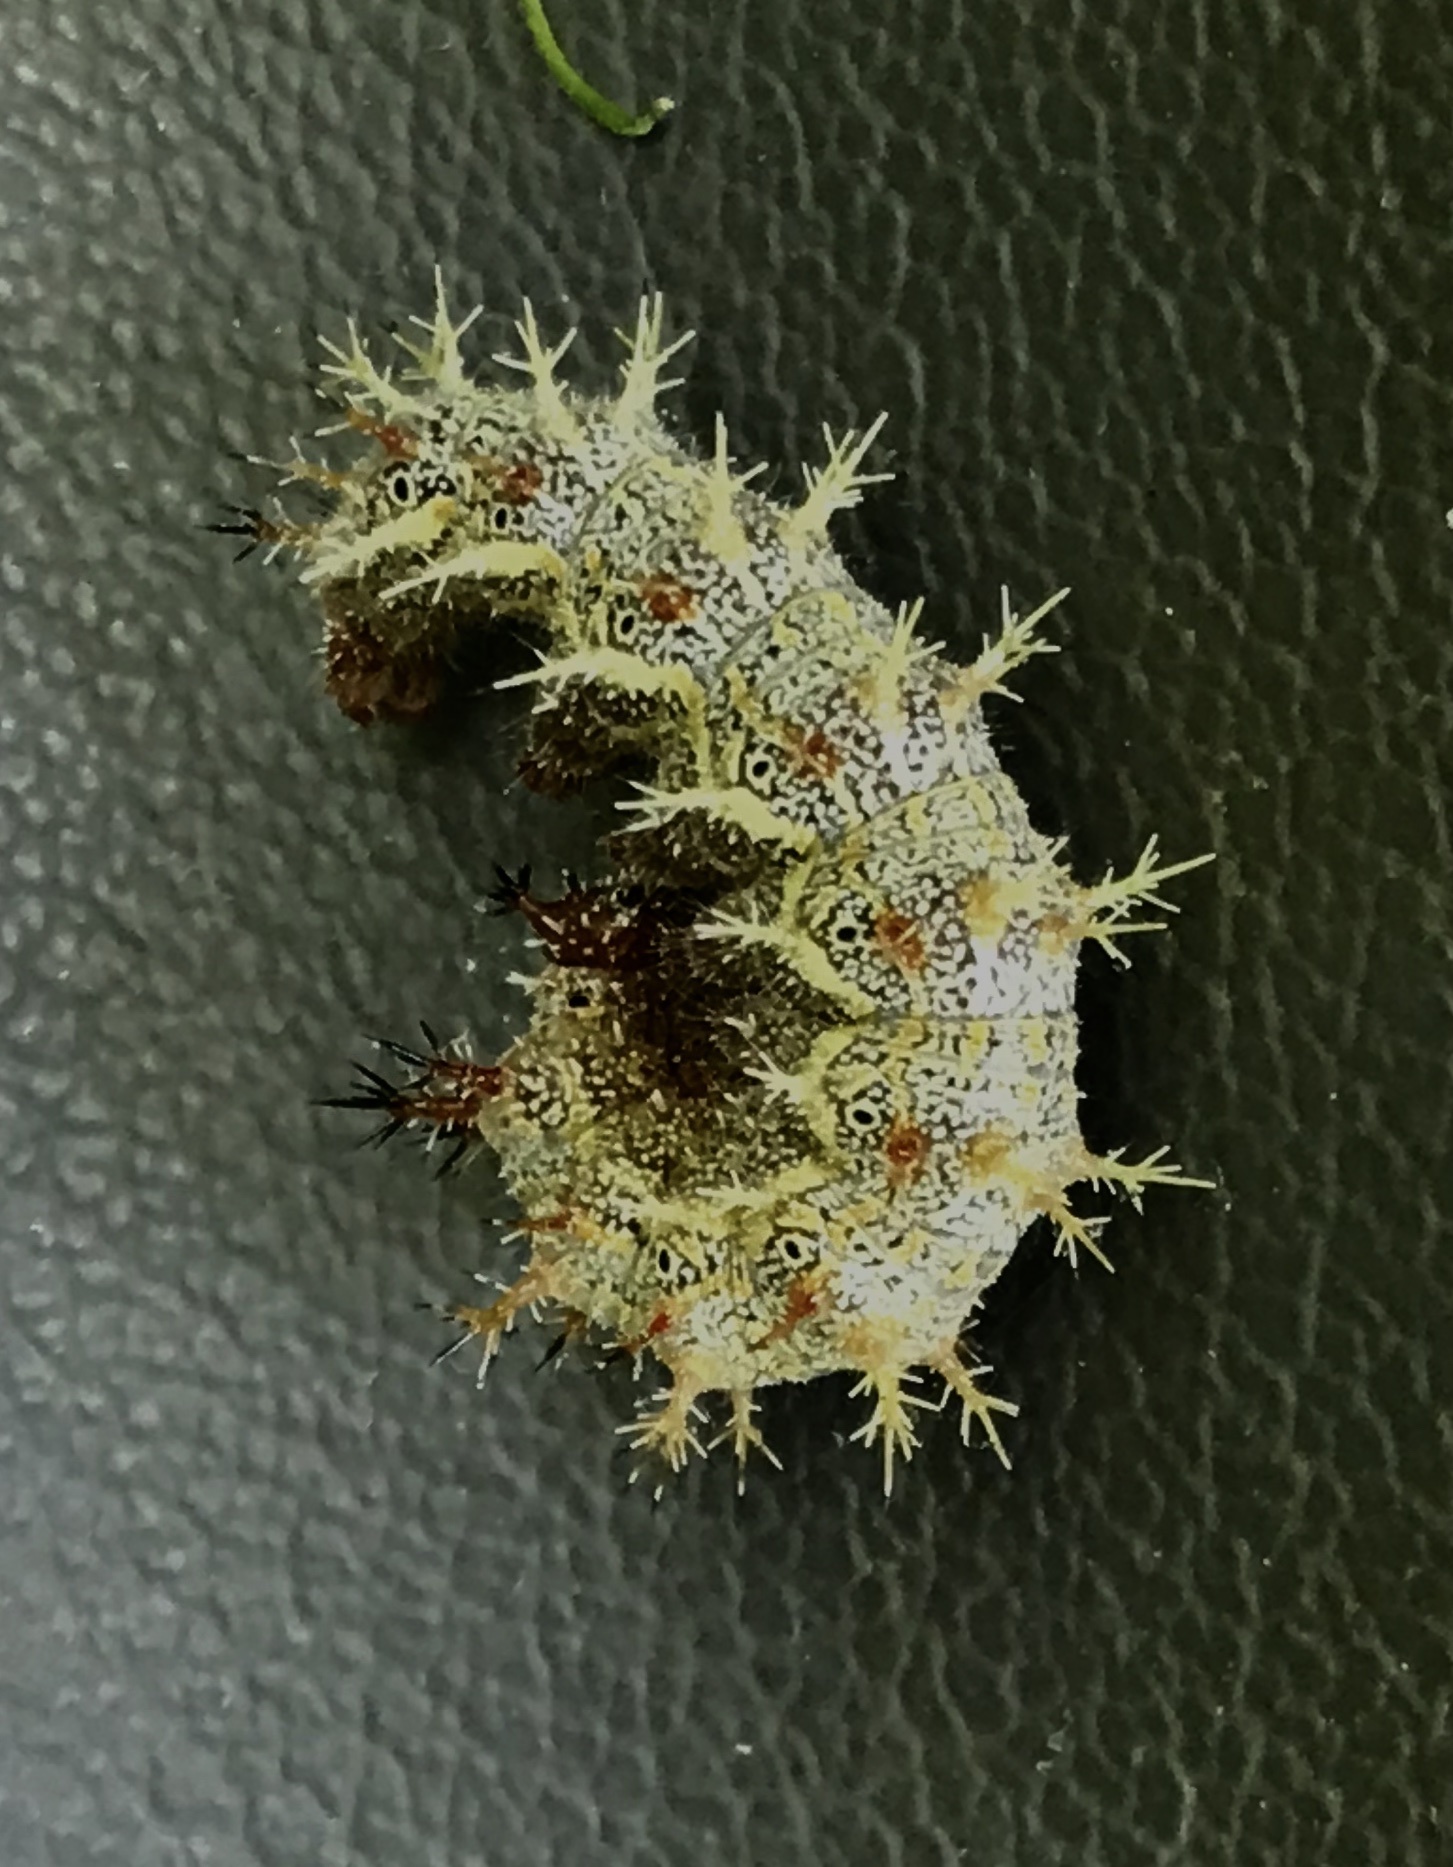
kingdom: Animalia
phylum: Arthropoda
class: Insecta
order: Lepidoptera
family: Nymphalidae
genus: Polygonia
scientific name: Polygonia interrogationis
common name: Question mark
